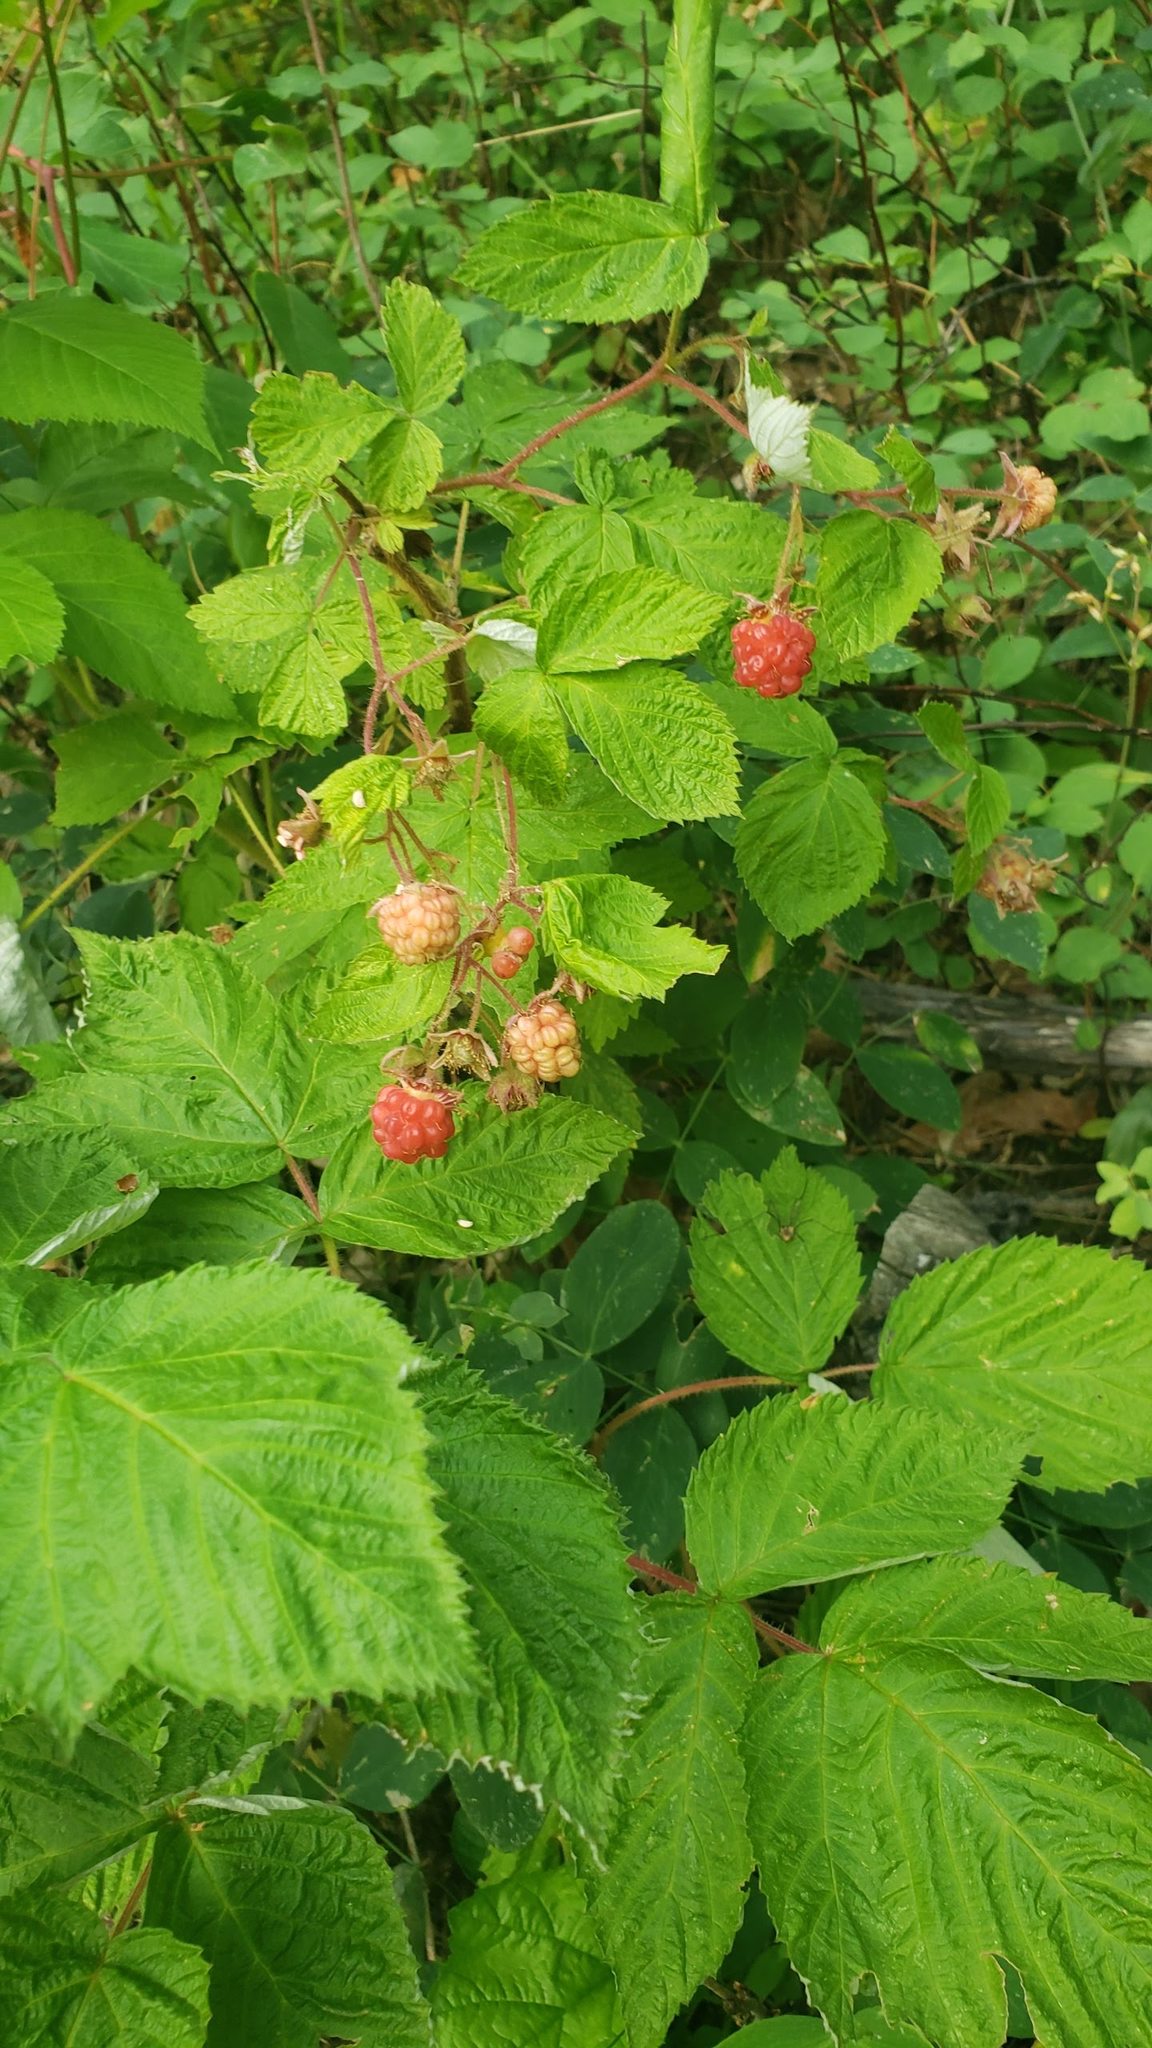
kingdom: Plantae
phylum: Tracheophyta
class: Magnoliopsida
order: Rosales
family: Rosaceae
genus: Rubus
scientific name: Rubus idaeus
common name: Raspberry
